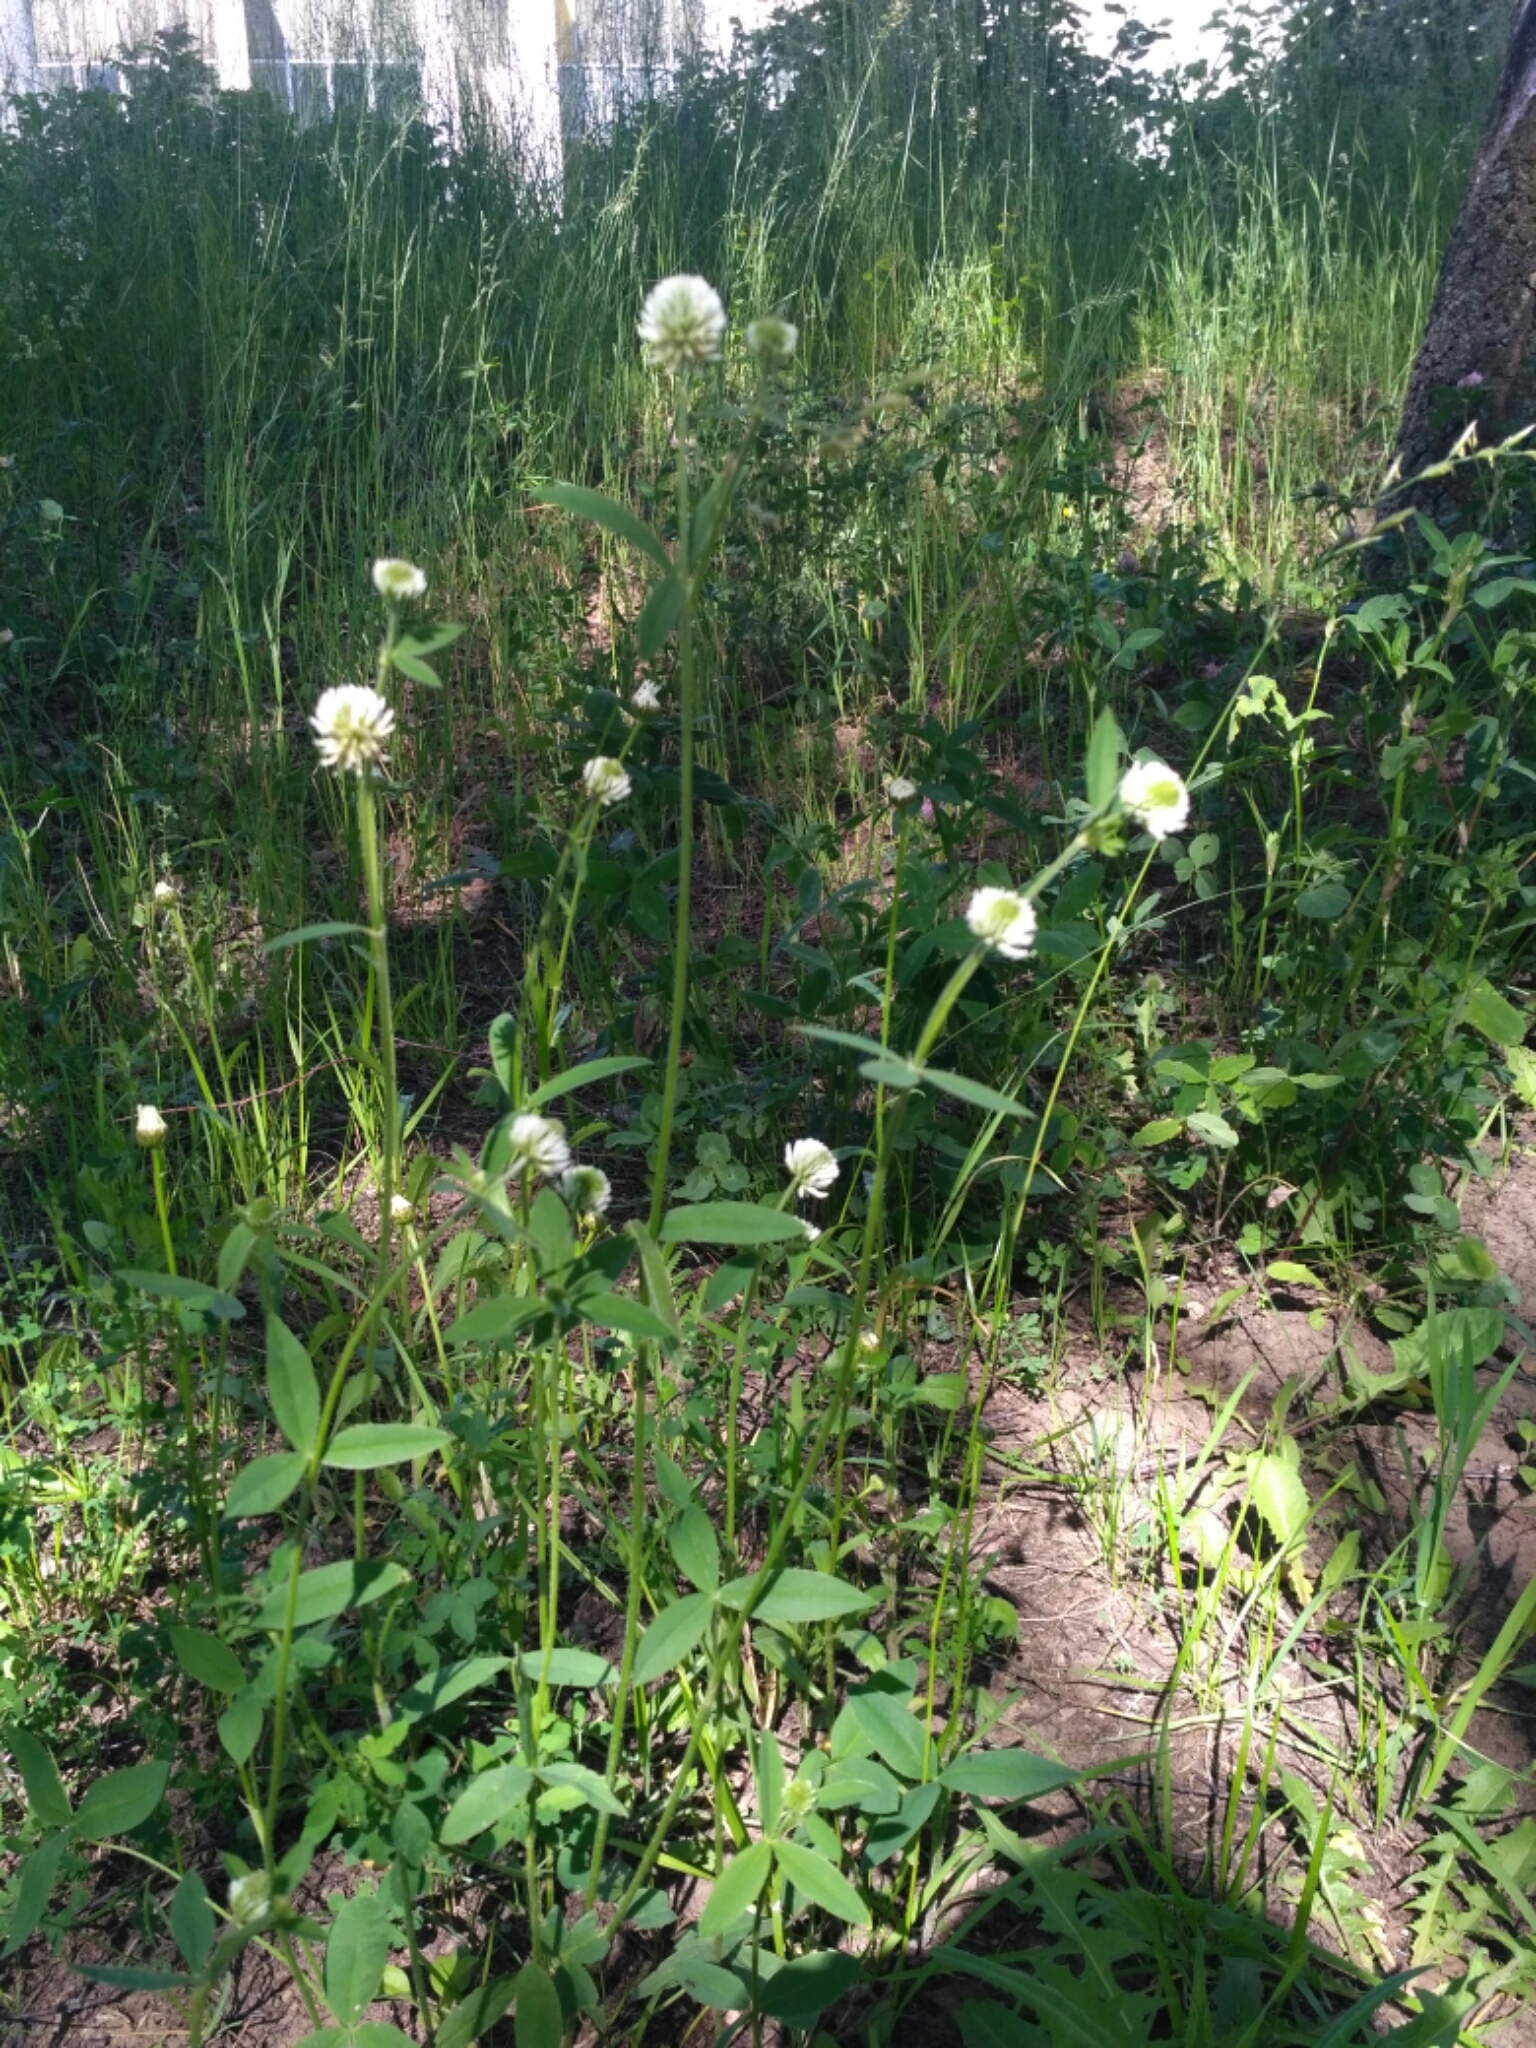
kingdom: Plantae
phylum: Tracheophyta
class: Magnoliopsida
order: Fabales
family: Fabaceae
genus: Trifolium
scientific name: Trifolium montanum
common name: Mountain clover
